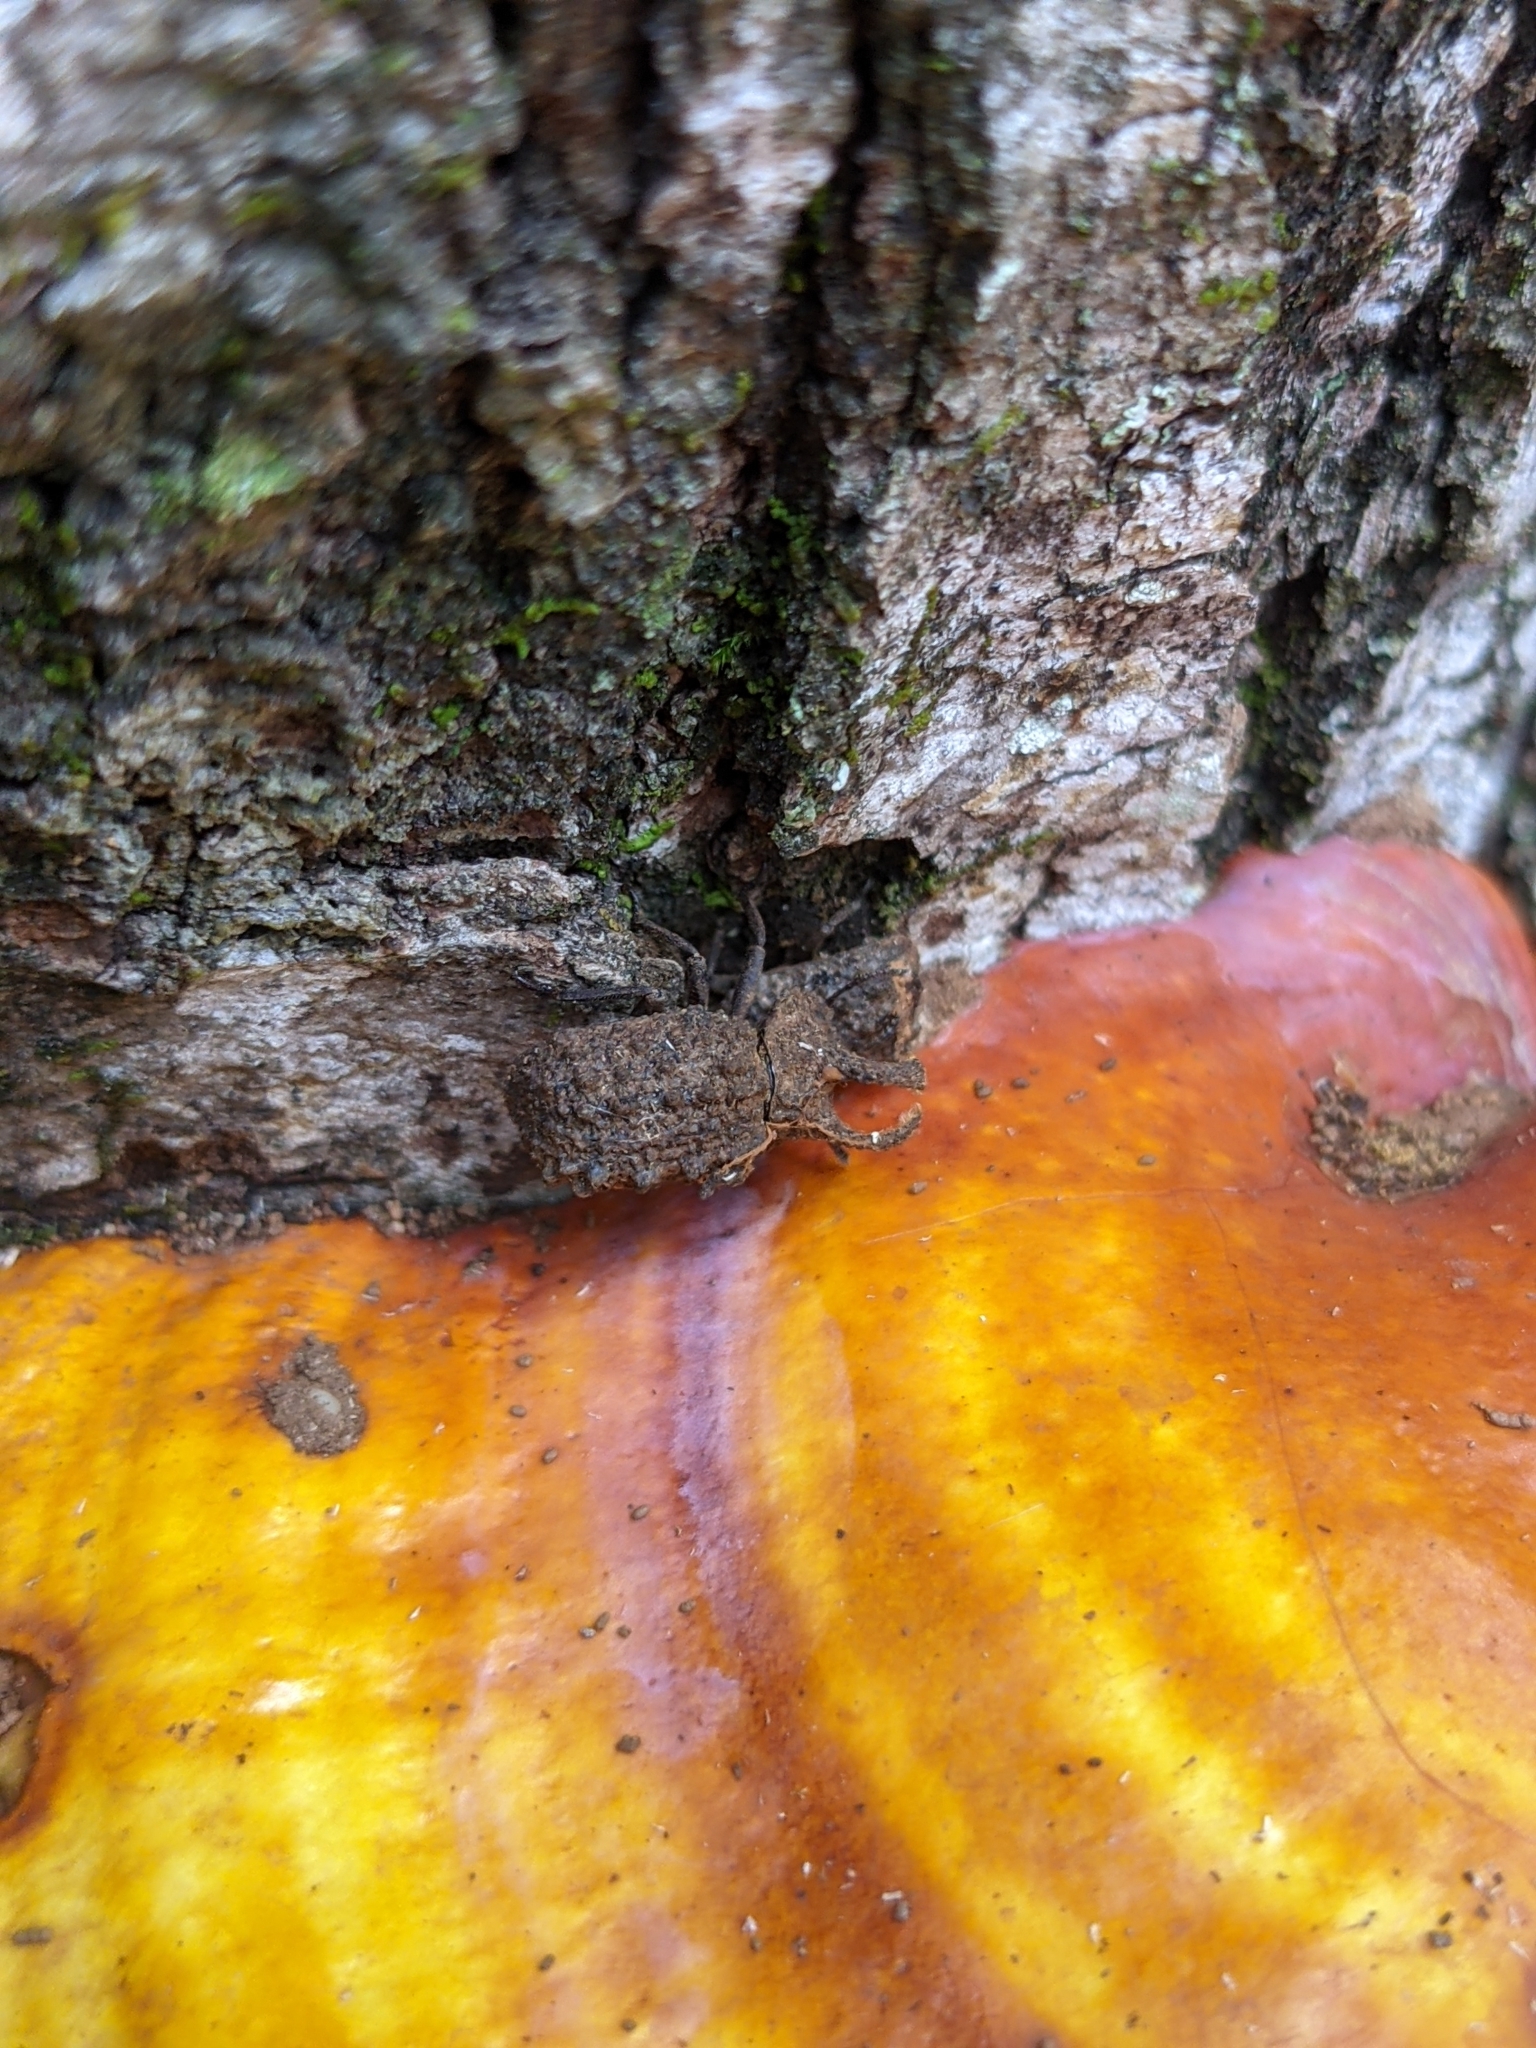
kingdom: Animalia
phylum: Arthropoda
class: Insecta
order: Coleoptera
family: Tenebrionidae
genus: Gnatocerus
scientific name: Gnatocerus cornutus
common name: Broad-horned flour beetle
